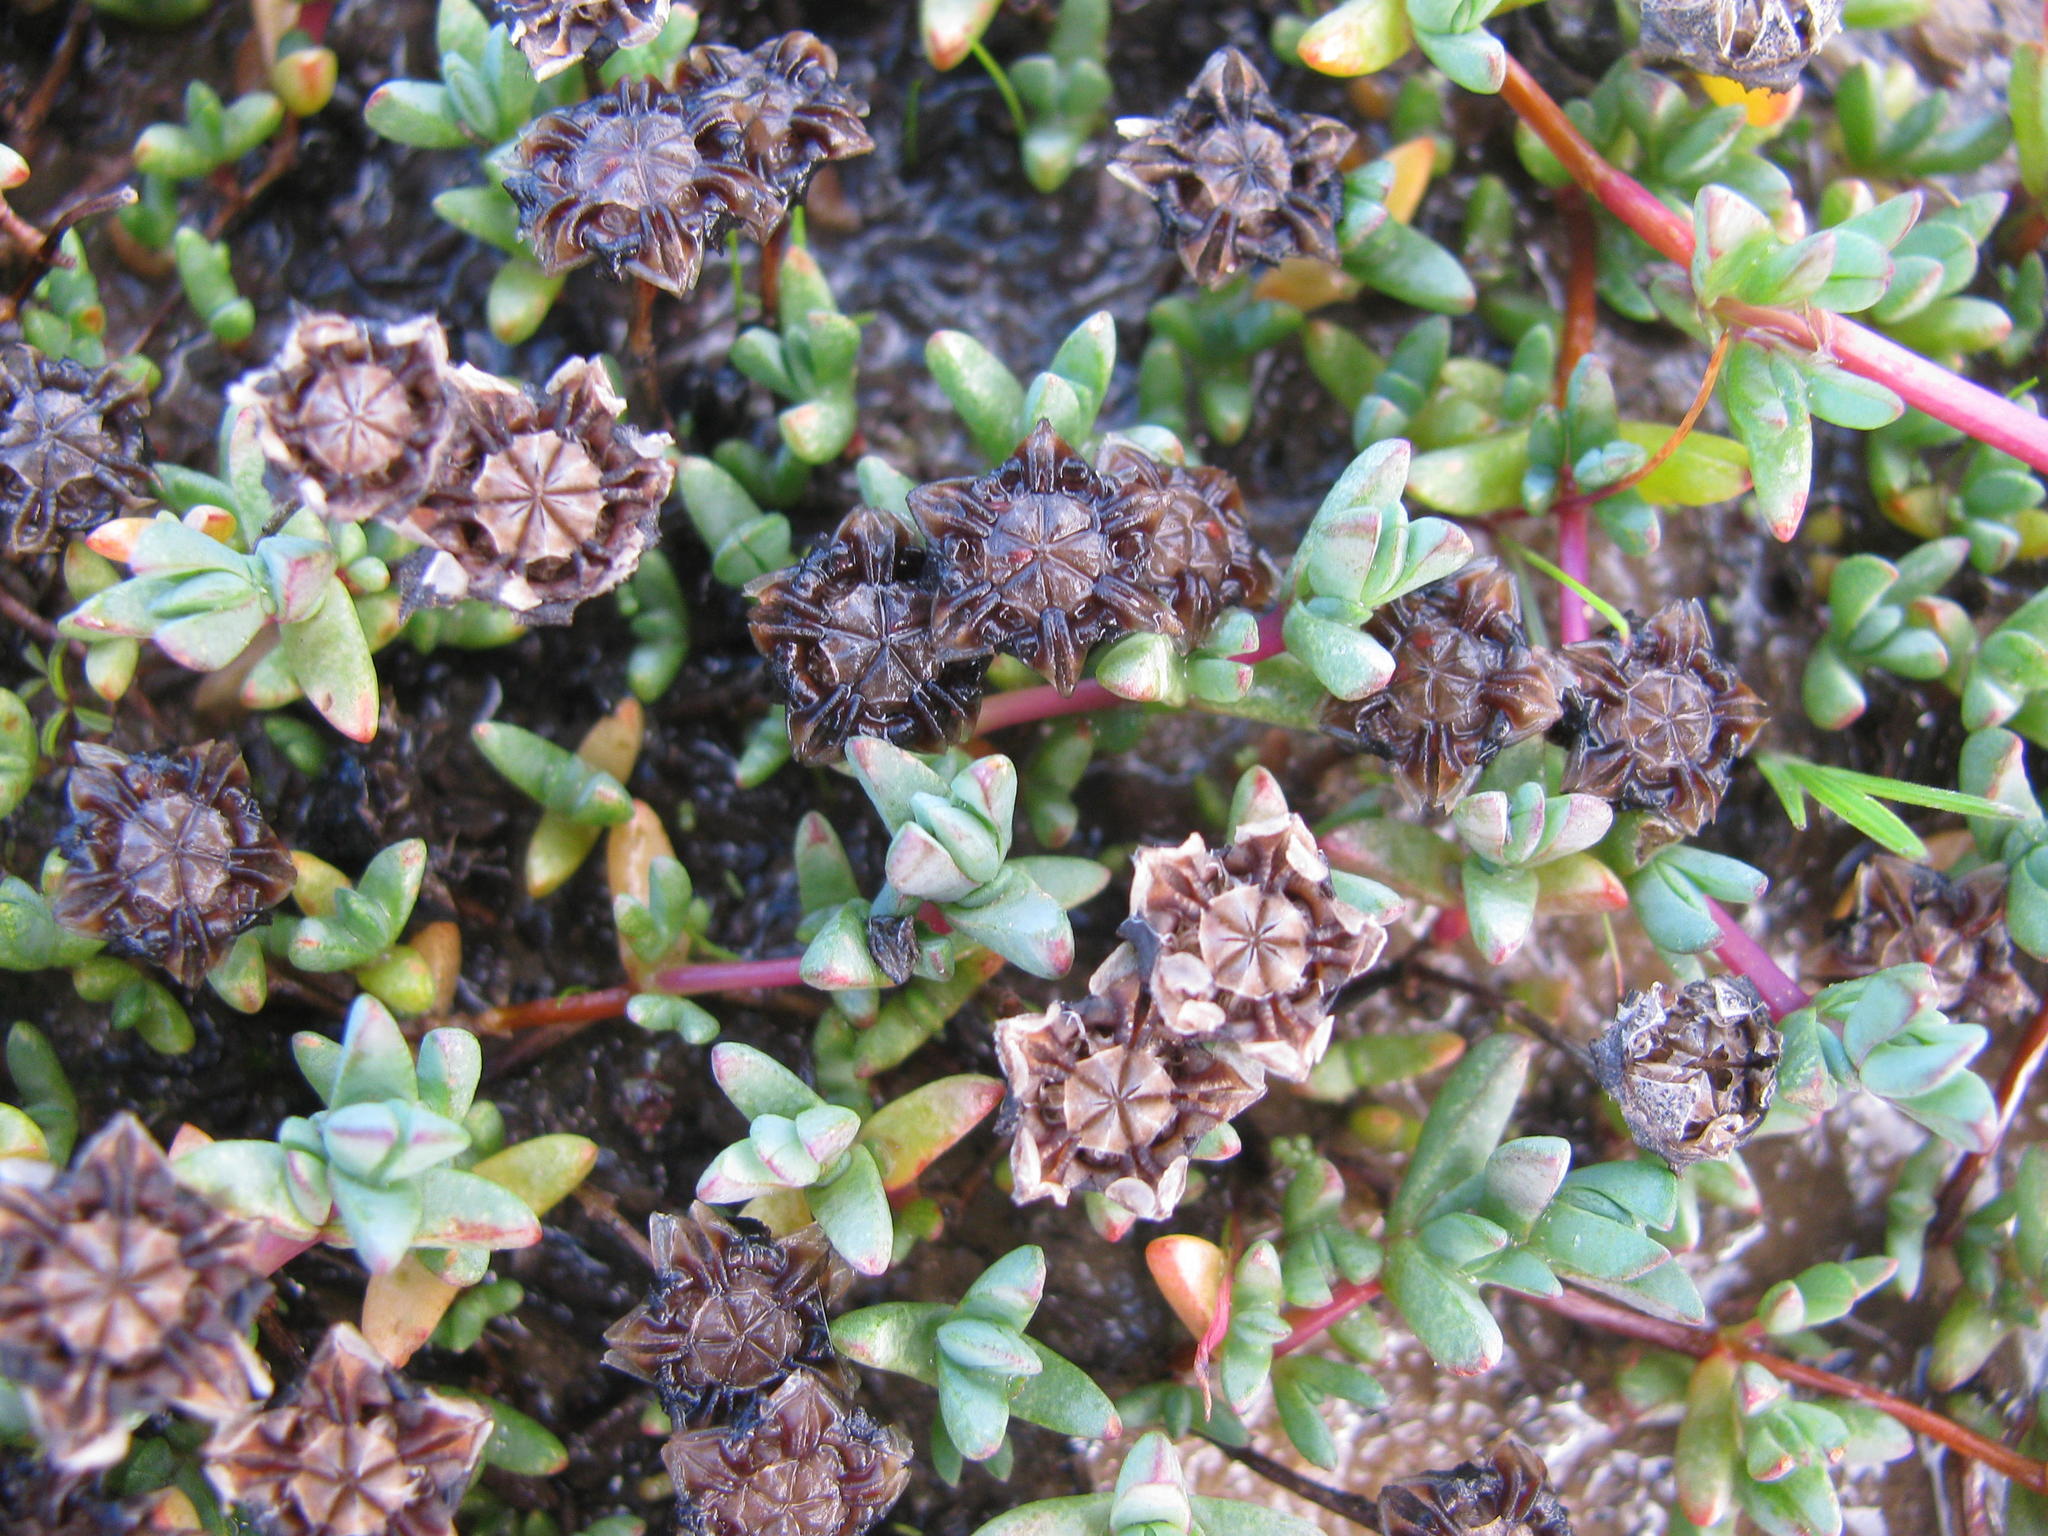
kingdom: Plantae
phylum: Tracheophyta
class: Magnoliopsida
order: Caryophyllales
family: Aizoaceae
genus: Lampranthus
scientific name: Lampranthus debilis
